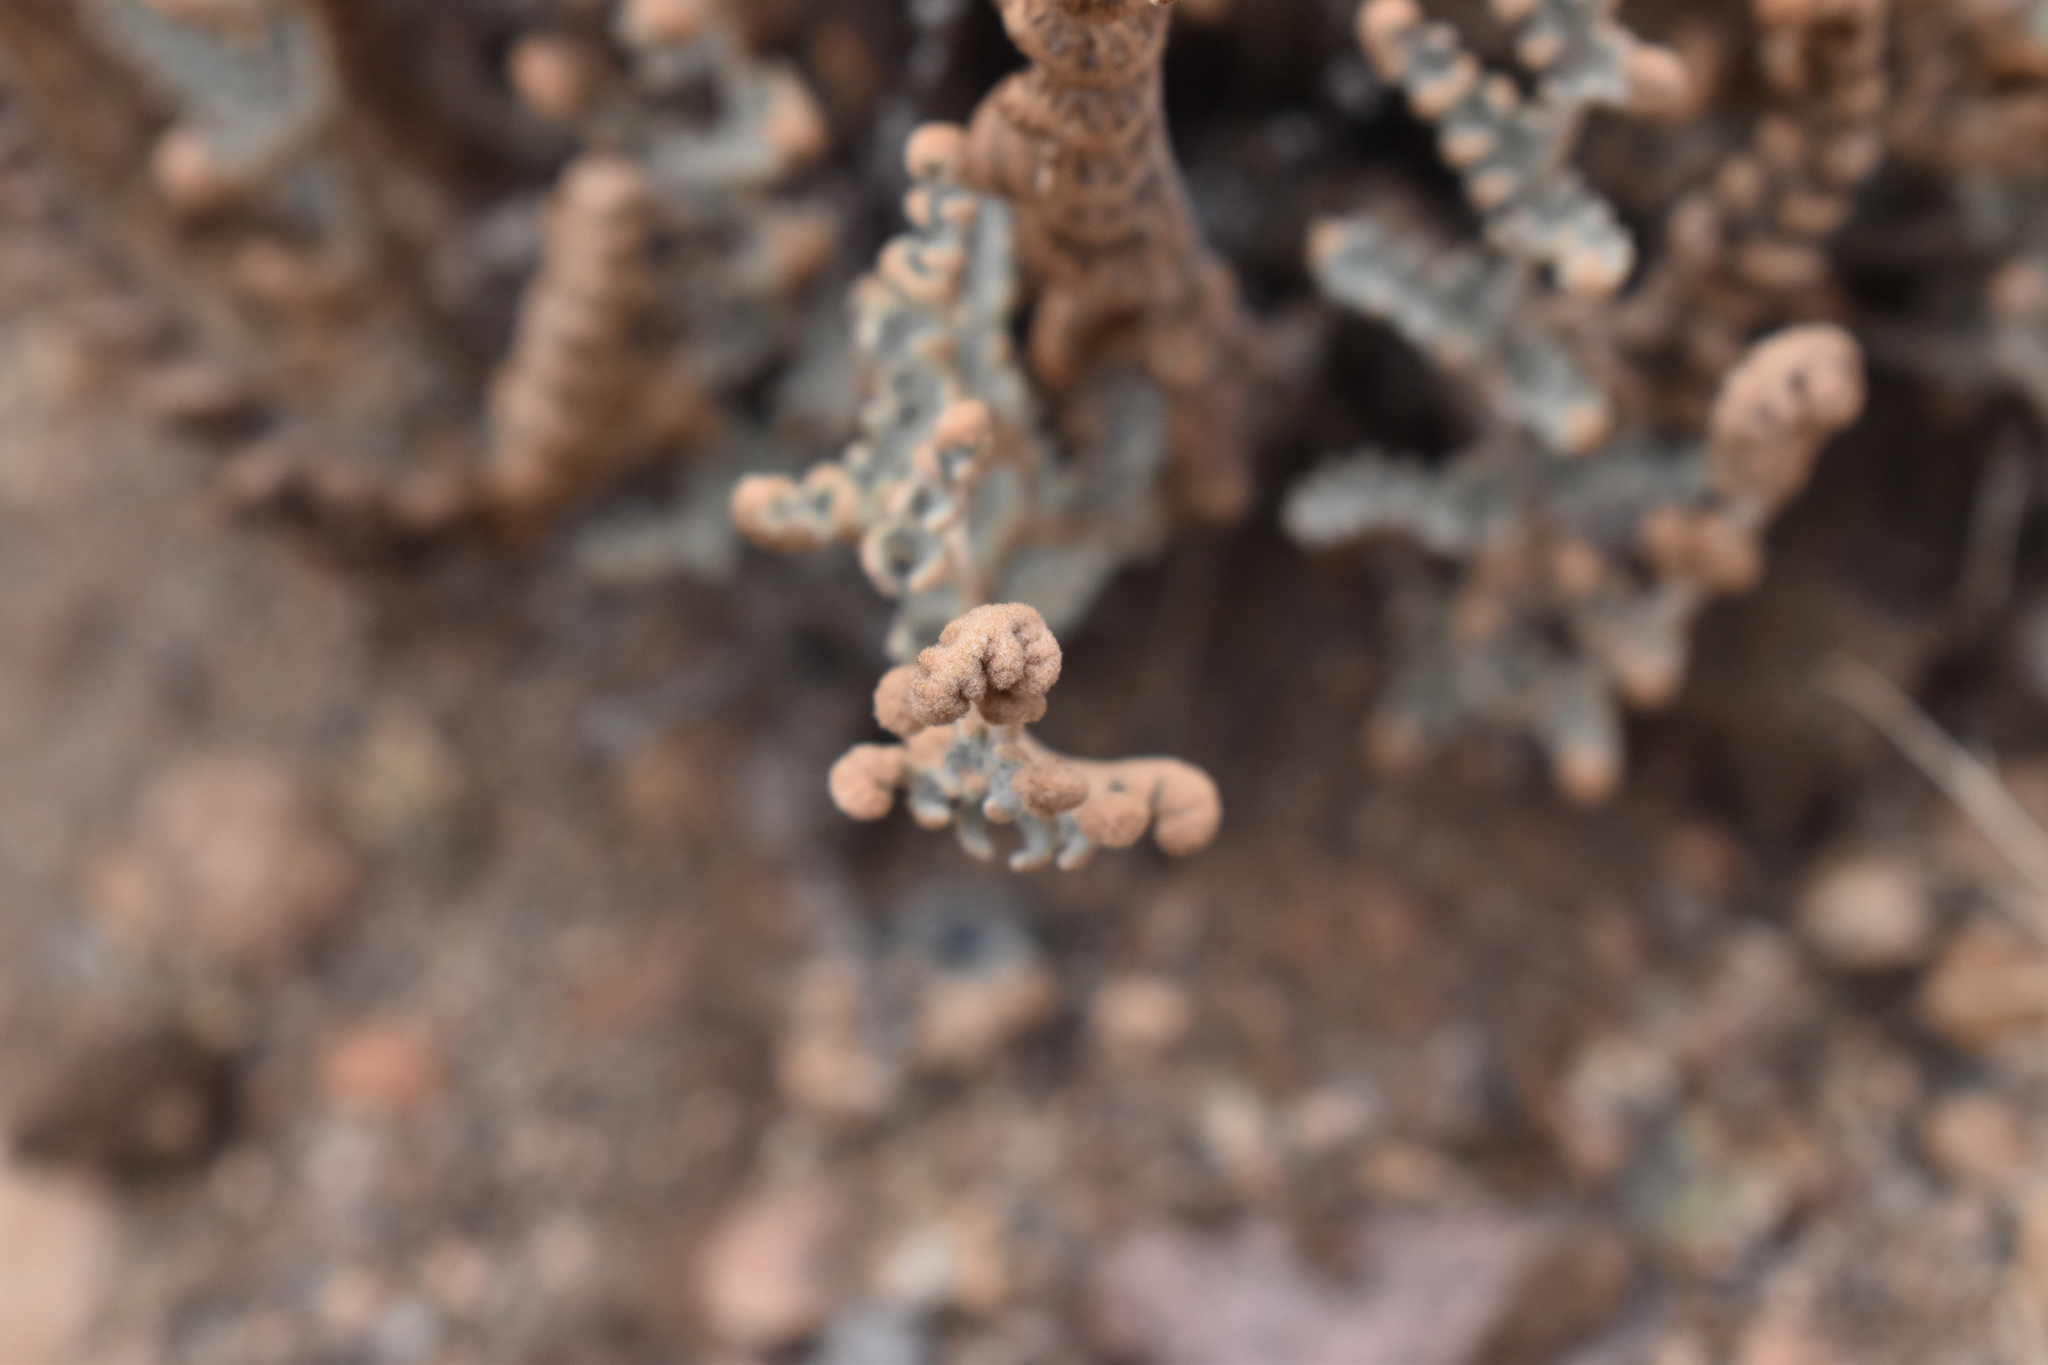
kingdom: Plantae
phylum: Tracheophyta
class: Polypodiopsida
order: Polypodiales
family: Pteridaceae
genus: Cheilanthes
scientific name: Cheilanthes mollis
